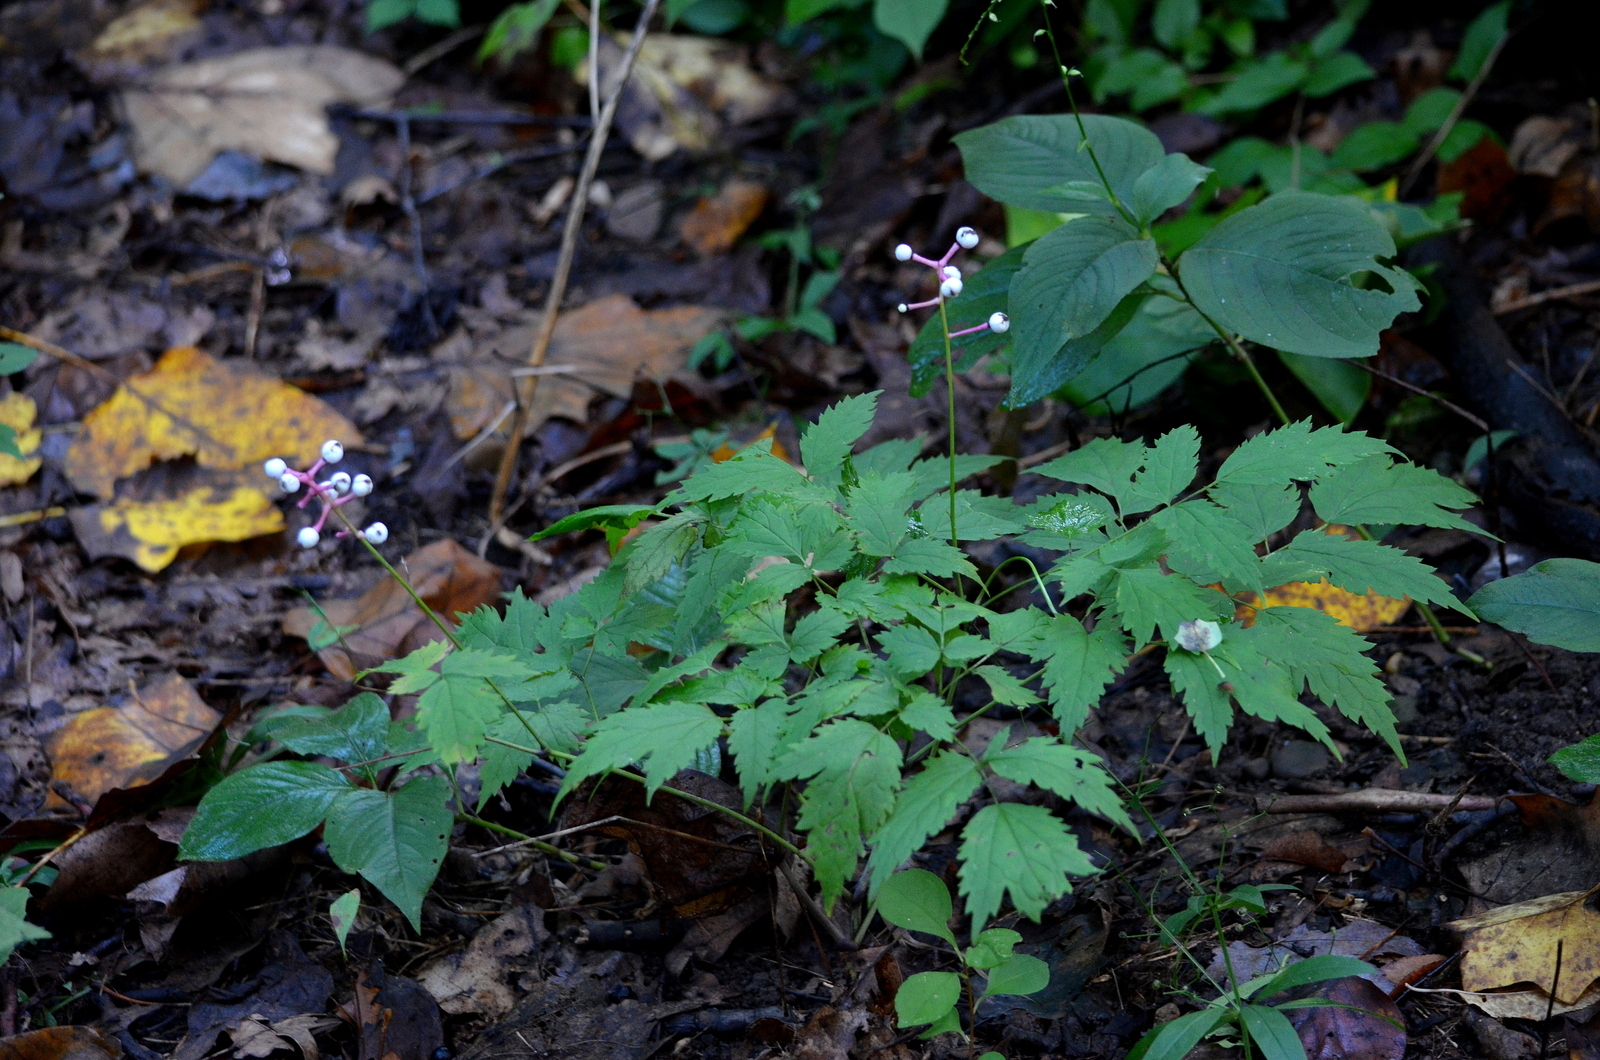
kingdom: Plantae
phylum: Tracheophyta
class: Magnoliopsida
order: Ranunculales
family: Ranunculaceae
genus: Actaea
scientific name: Actaea pachypoda
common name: Doll's-eyes
